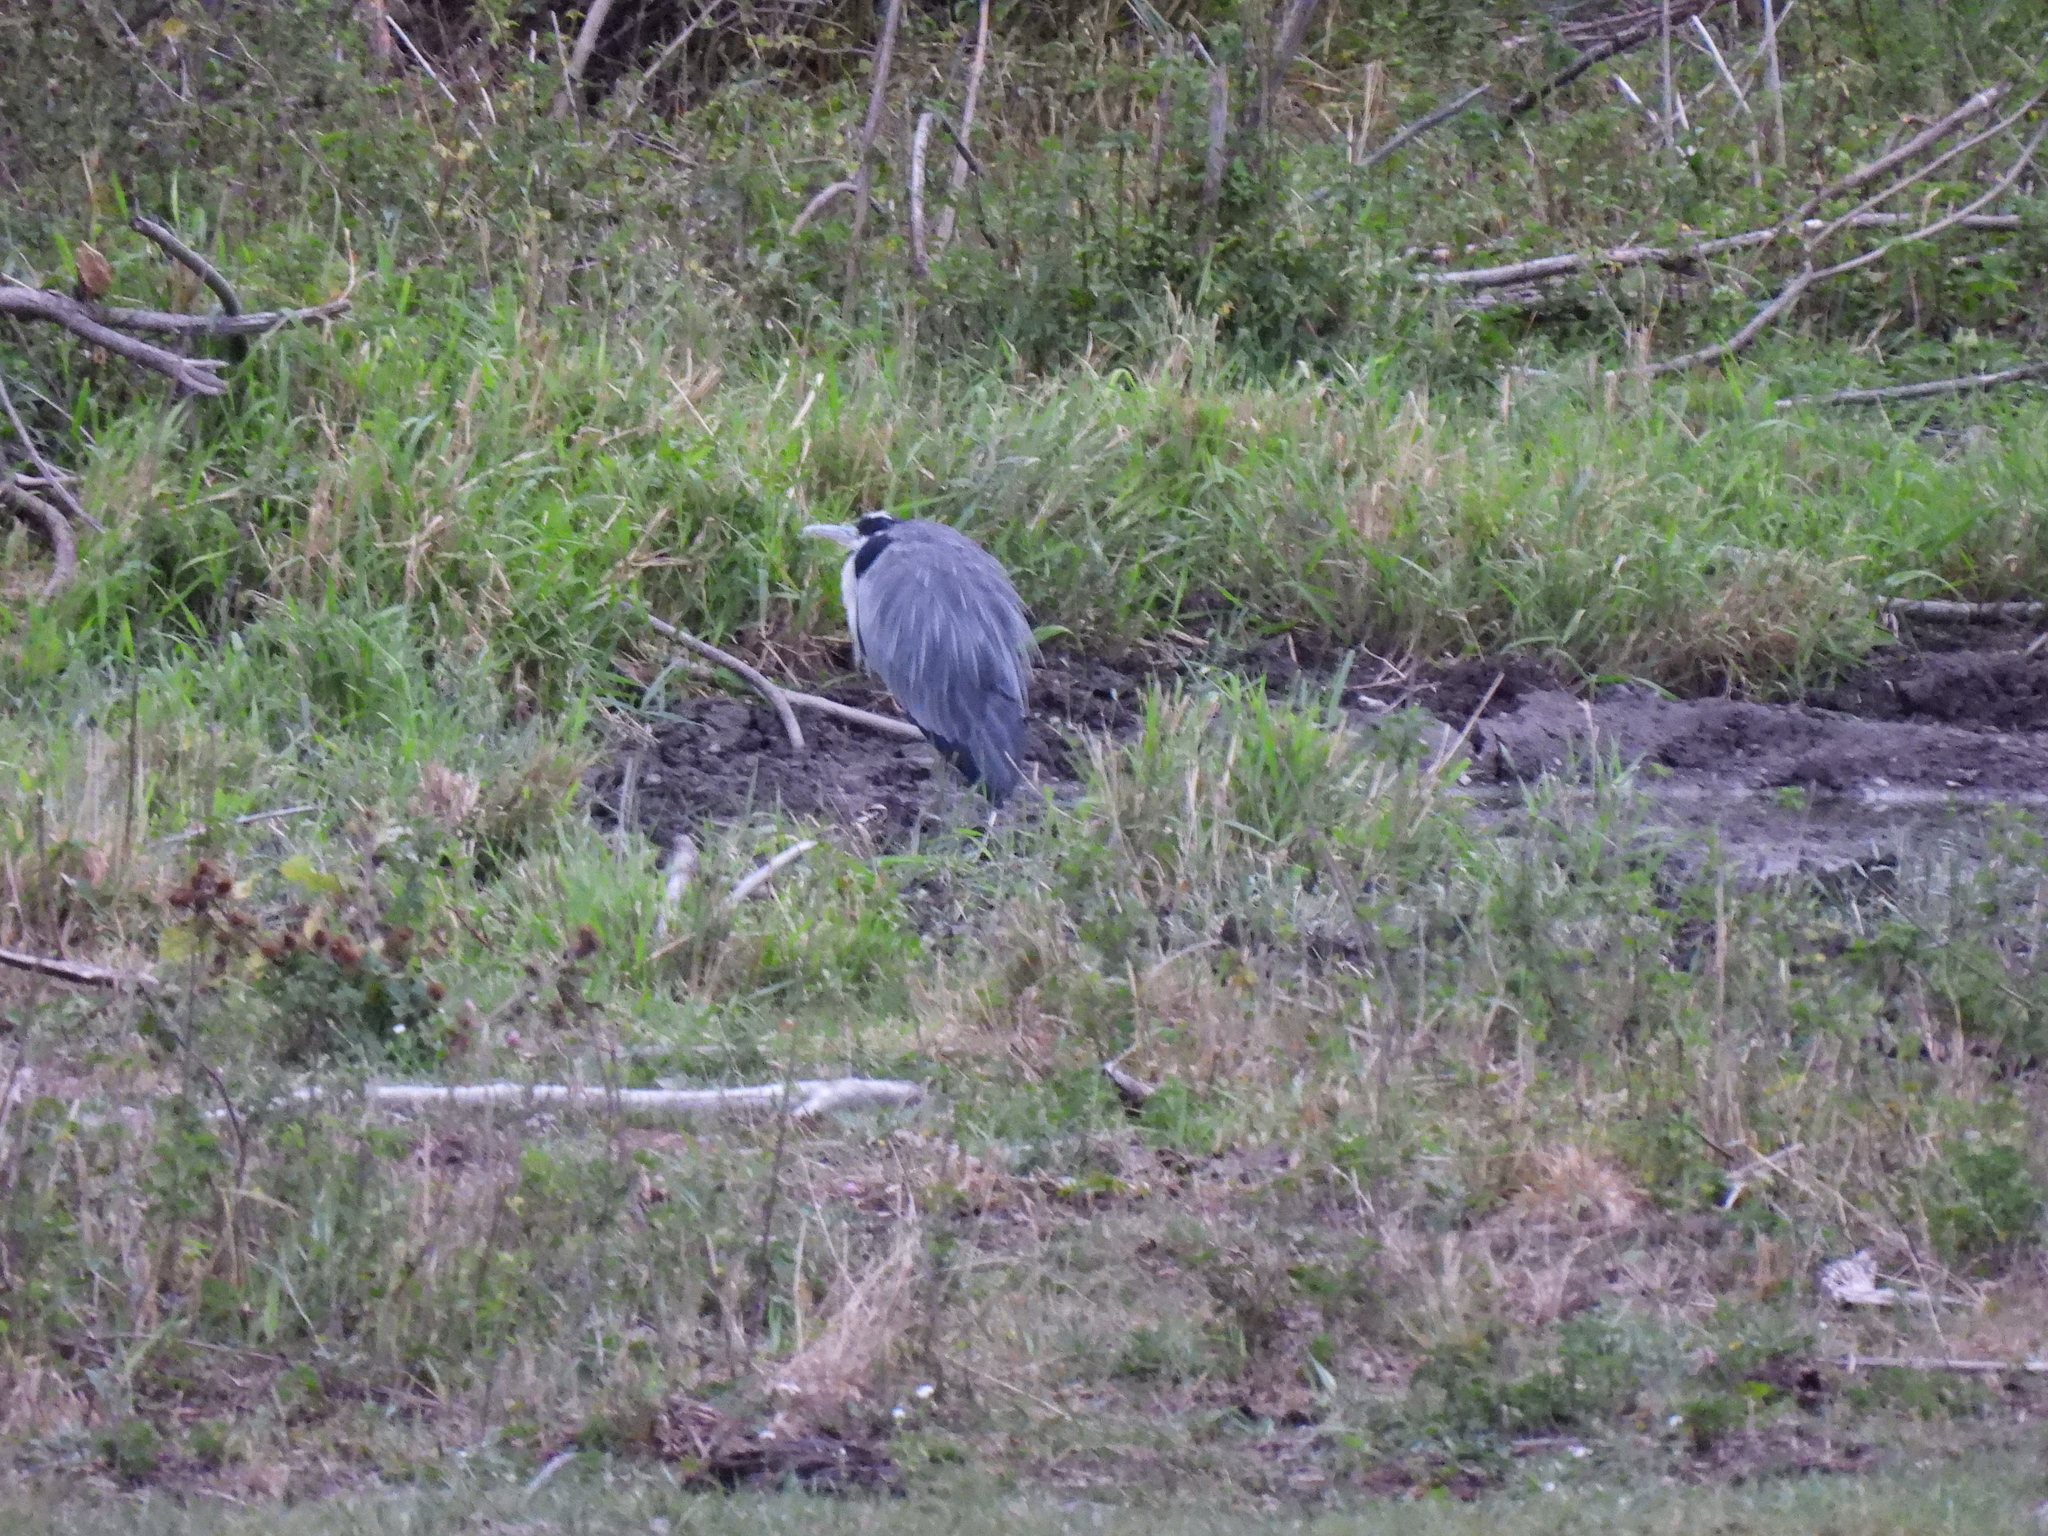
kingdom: Animalia
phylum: Chordata
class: Aves
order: Pelecaniformes
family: Ardeidae
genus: Ardea
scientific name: Ardea cinerea
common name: Grey heron
